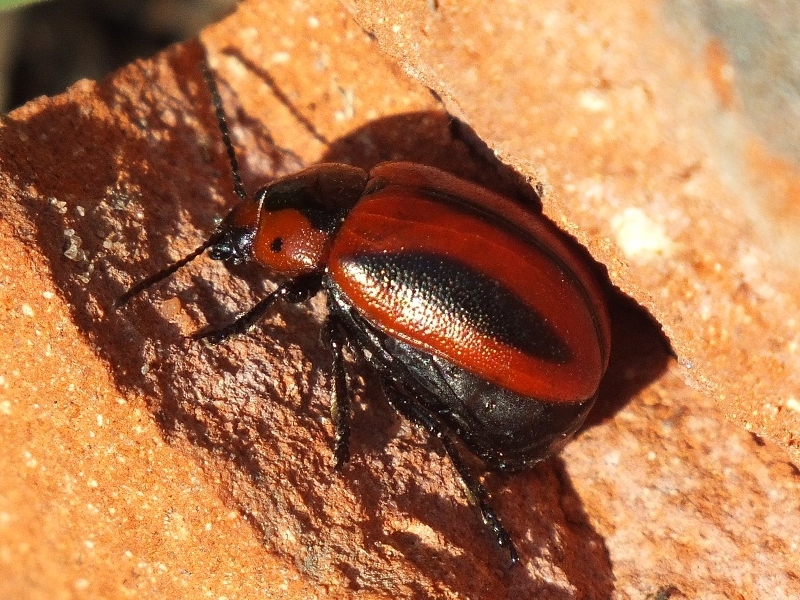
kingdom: Animalia
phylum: Arthropoda
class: Insecta
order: Coleoptera
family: Chrysomelidae
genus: Entomoscelis
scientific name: Entomoscelis adonidis
